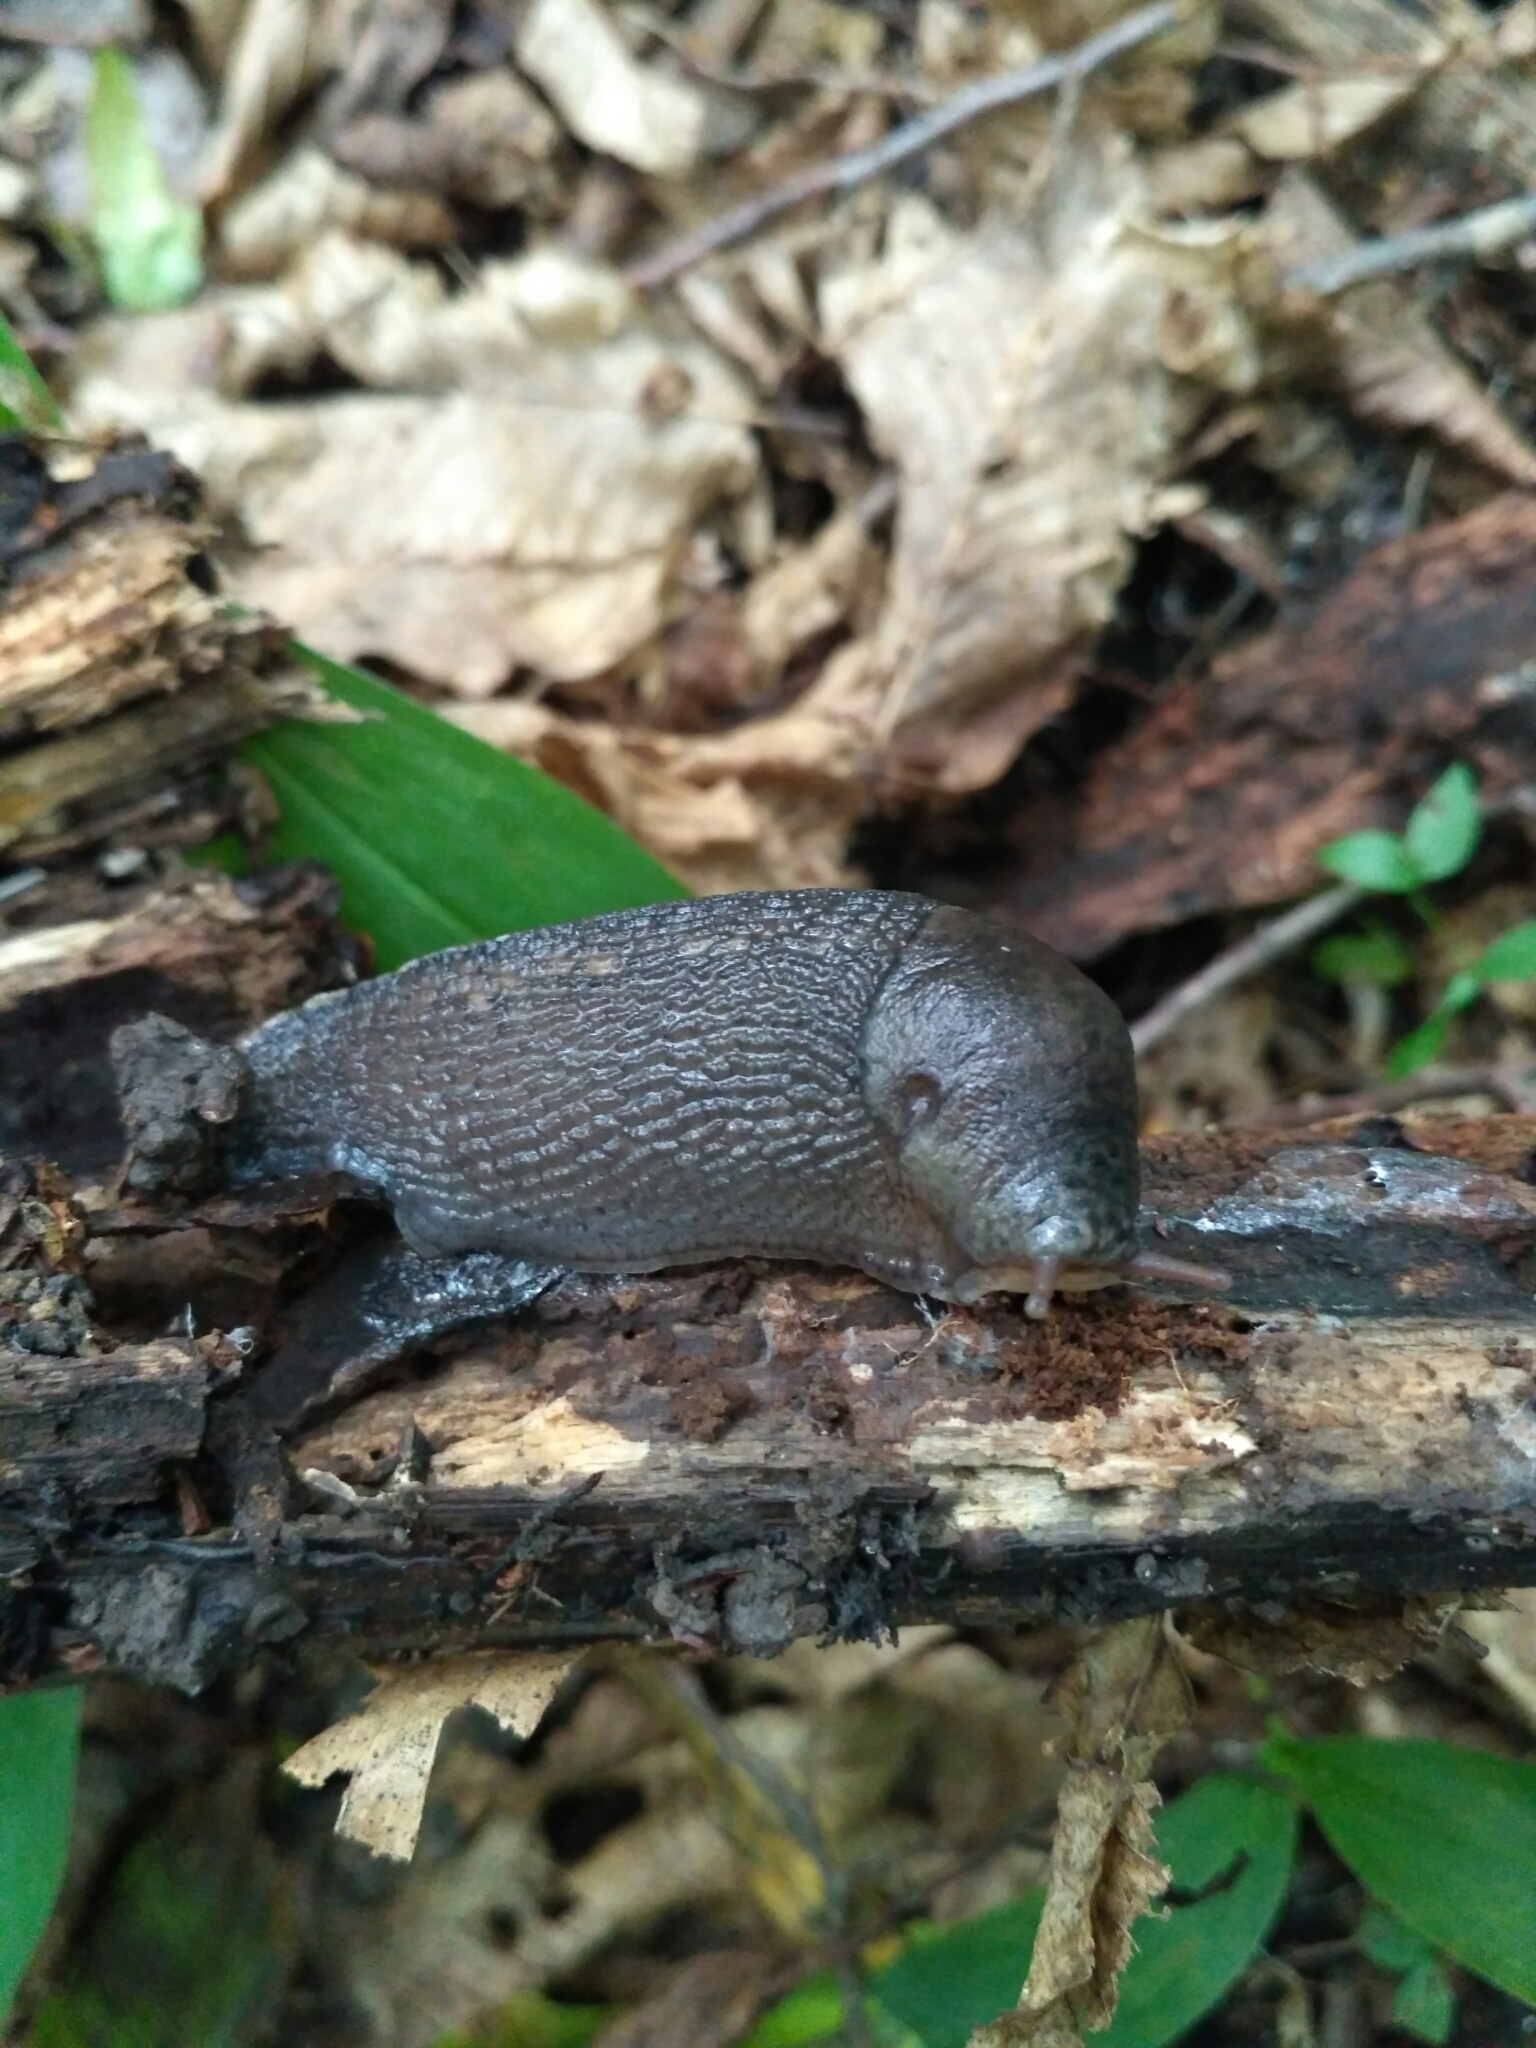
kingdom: Animalia
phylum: Mollusca
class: Gastropoda
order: Stylommatophora
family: Limacidae
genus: Limax
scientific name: Limax cinereoniger
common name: Ash-black slug
